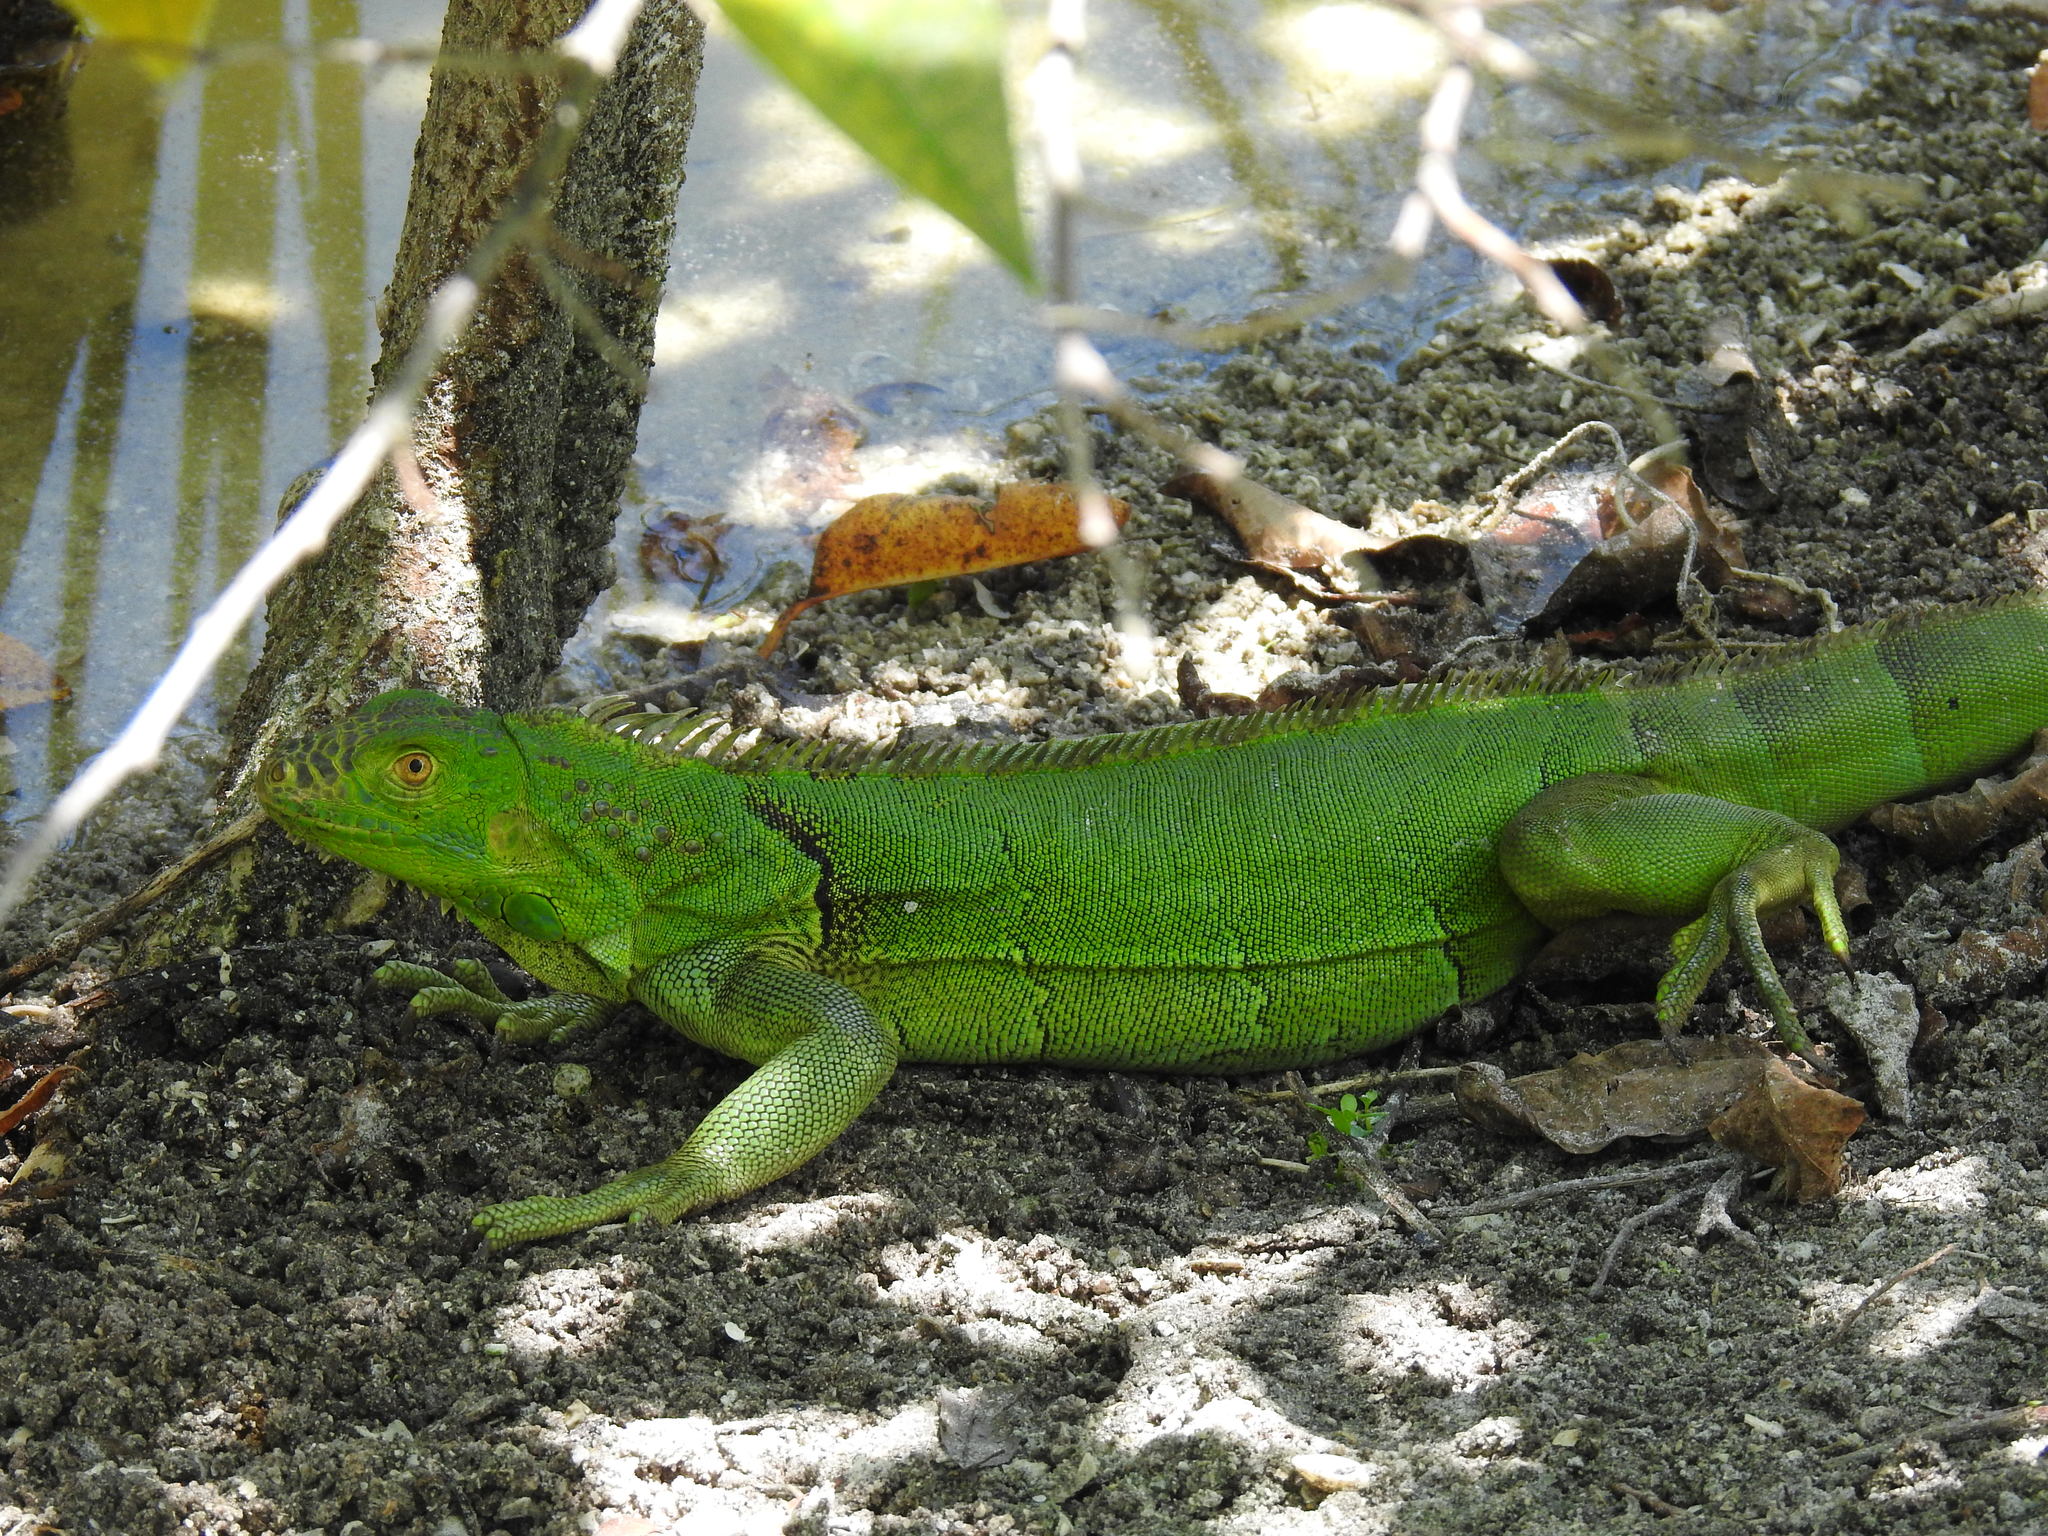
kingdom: Animalia
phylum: Chordata
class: Squamata
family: Iguanidae
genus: Iguana
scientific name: Iguana iguana
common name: Green iguana
